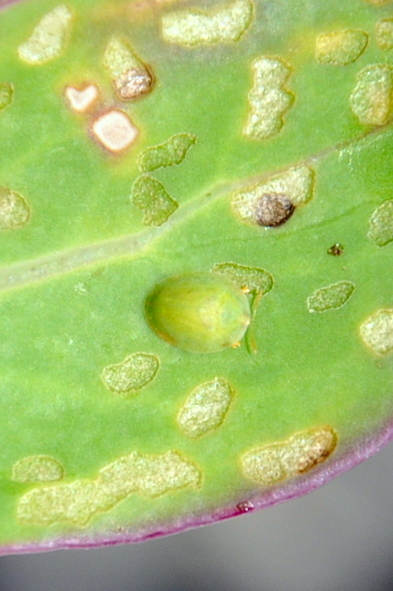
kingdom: Animalia
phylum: Arthropoda
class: Insecta
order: Coleoptera
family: Chrysomelidae
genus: Cassida
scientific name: Cassida pudens
